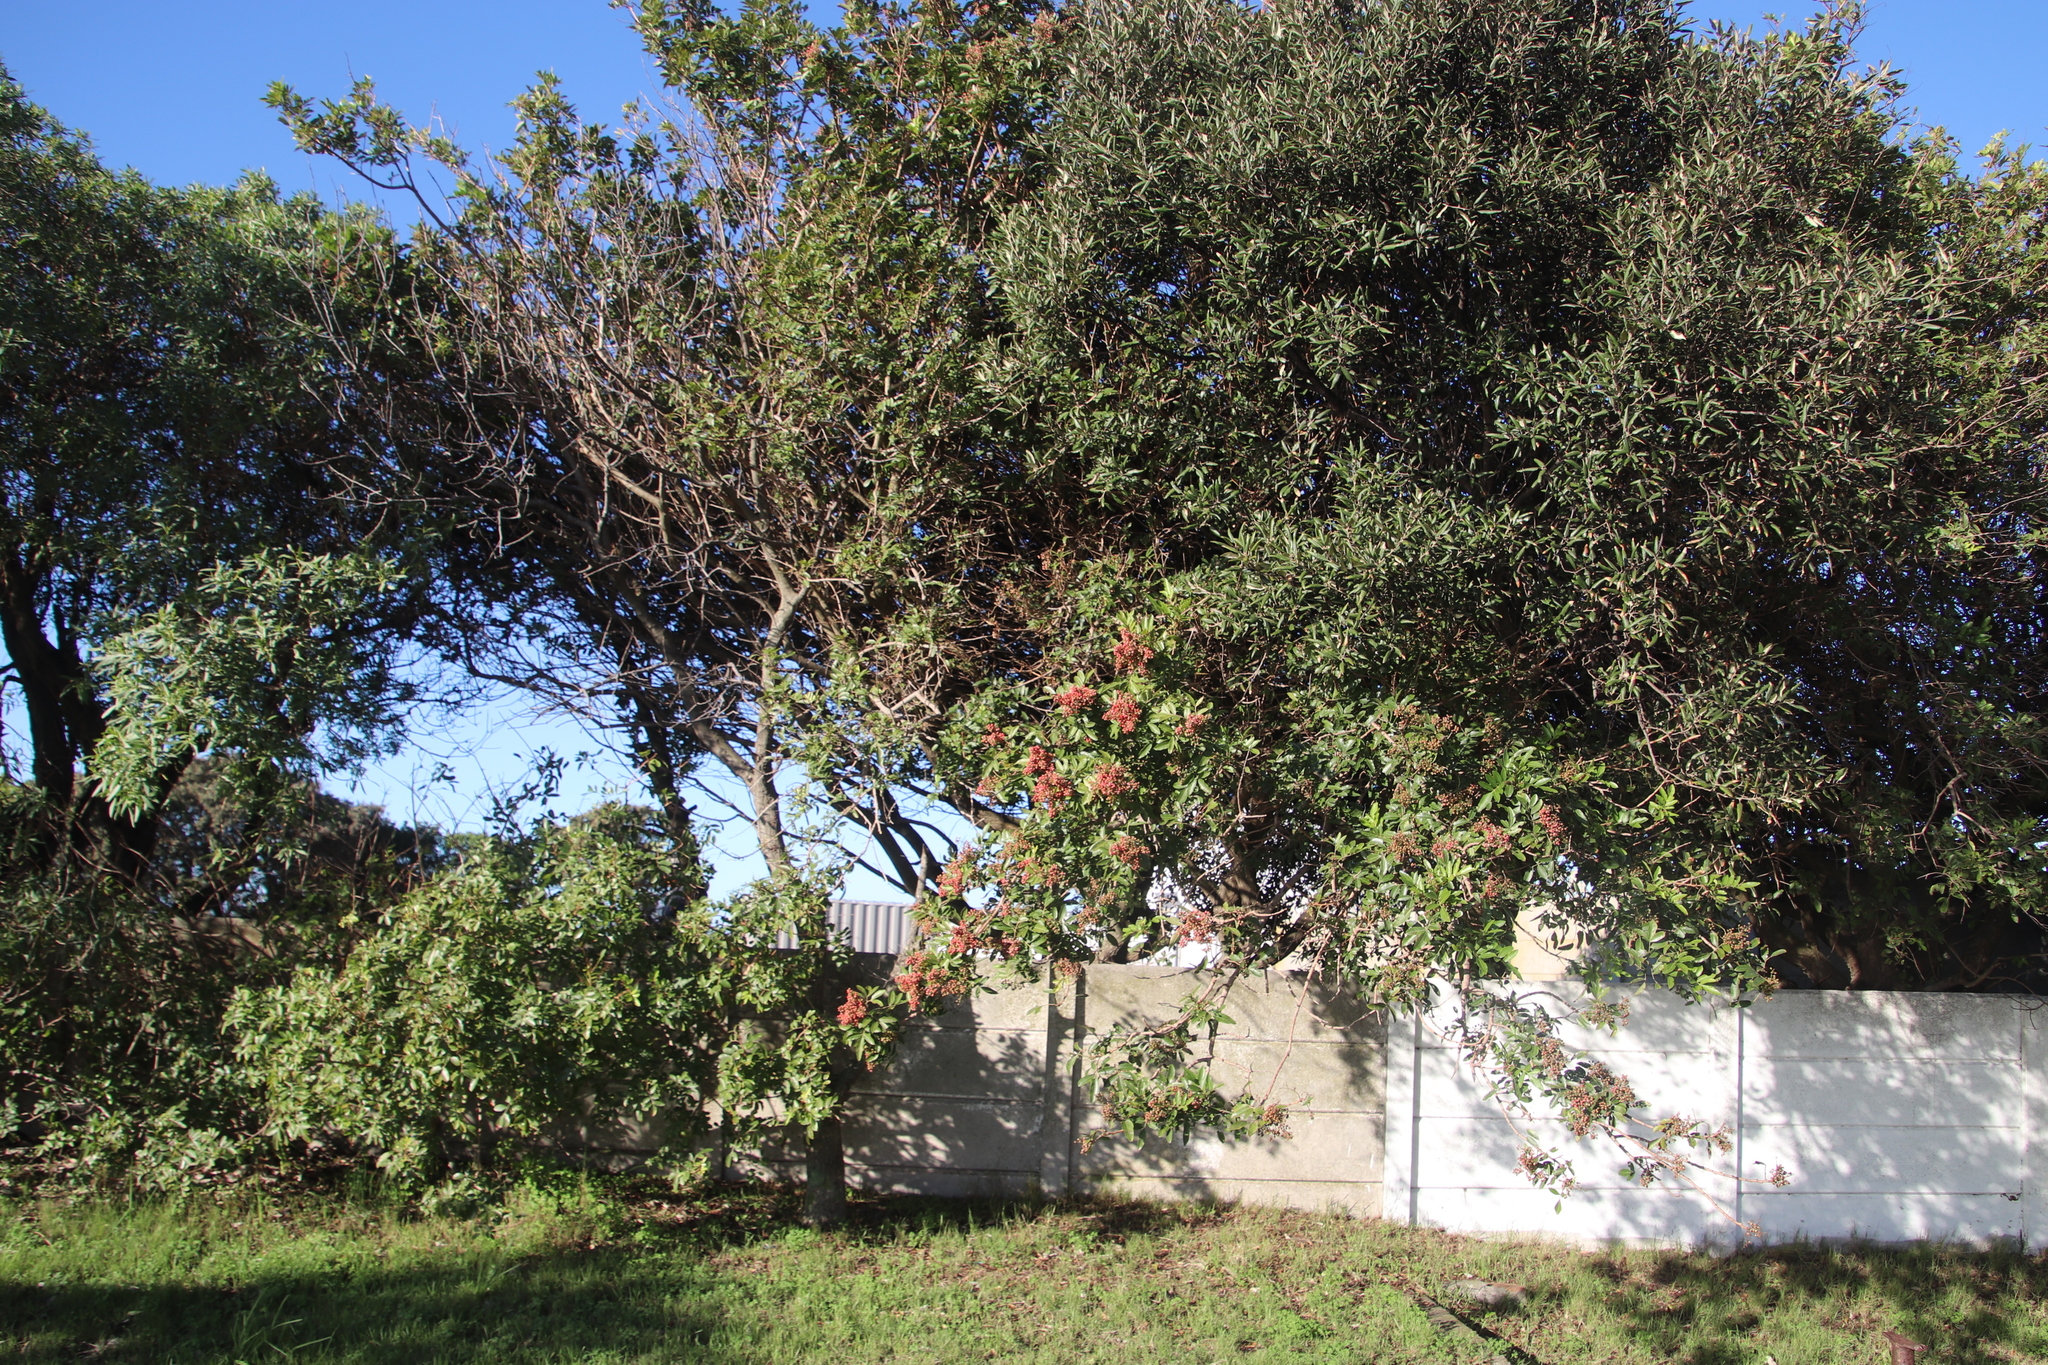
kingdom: Plantae
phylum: Tracheophyta
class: Magnoliopsida
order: Sapindales
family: Anacardiaceae
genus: Schinus
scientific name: Schinus terebinthifolia
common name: Brazilian peppertree
